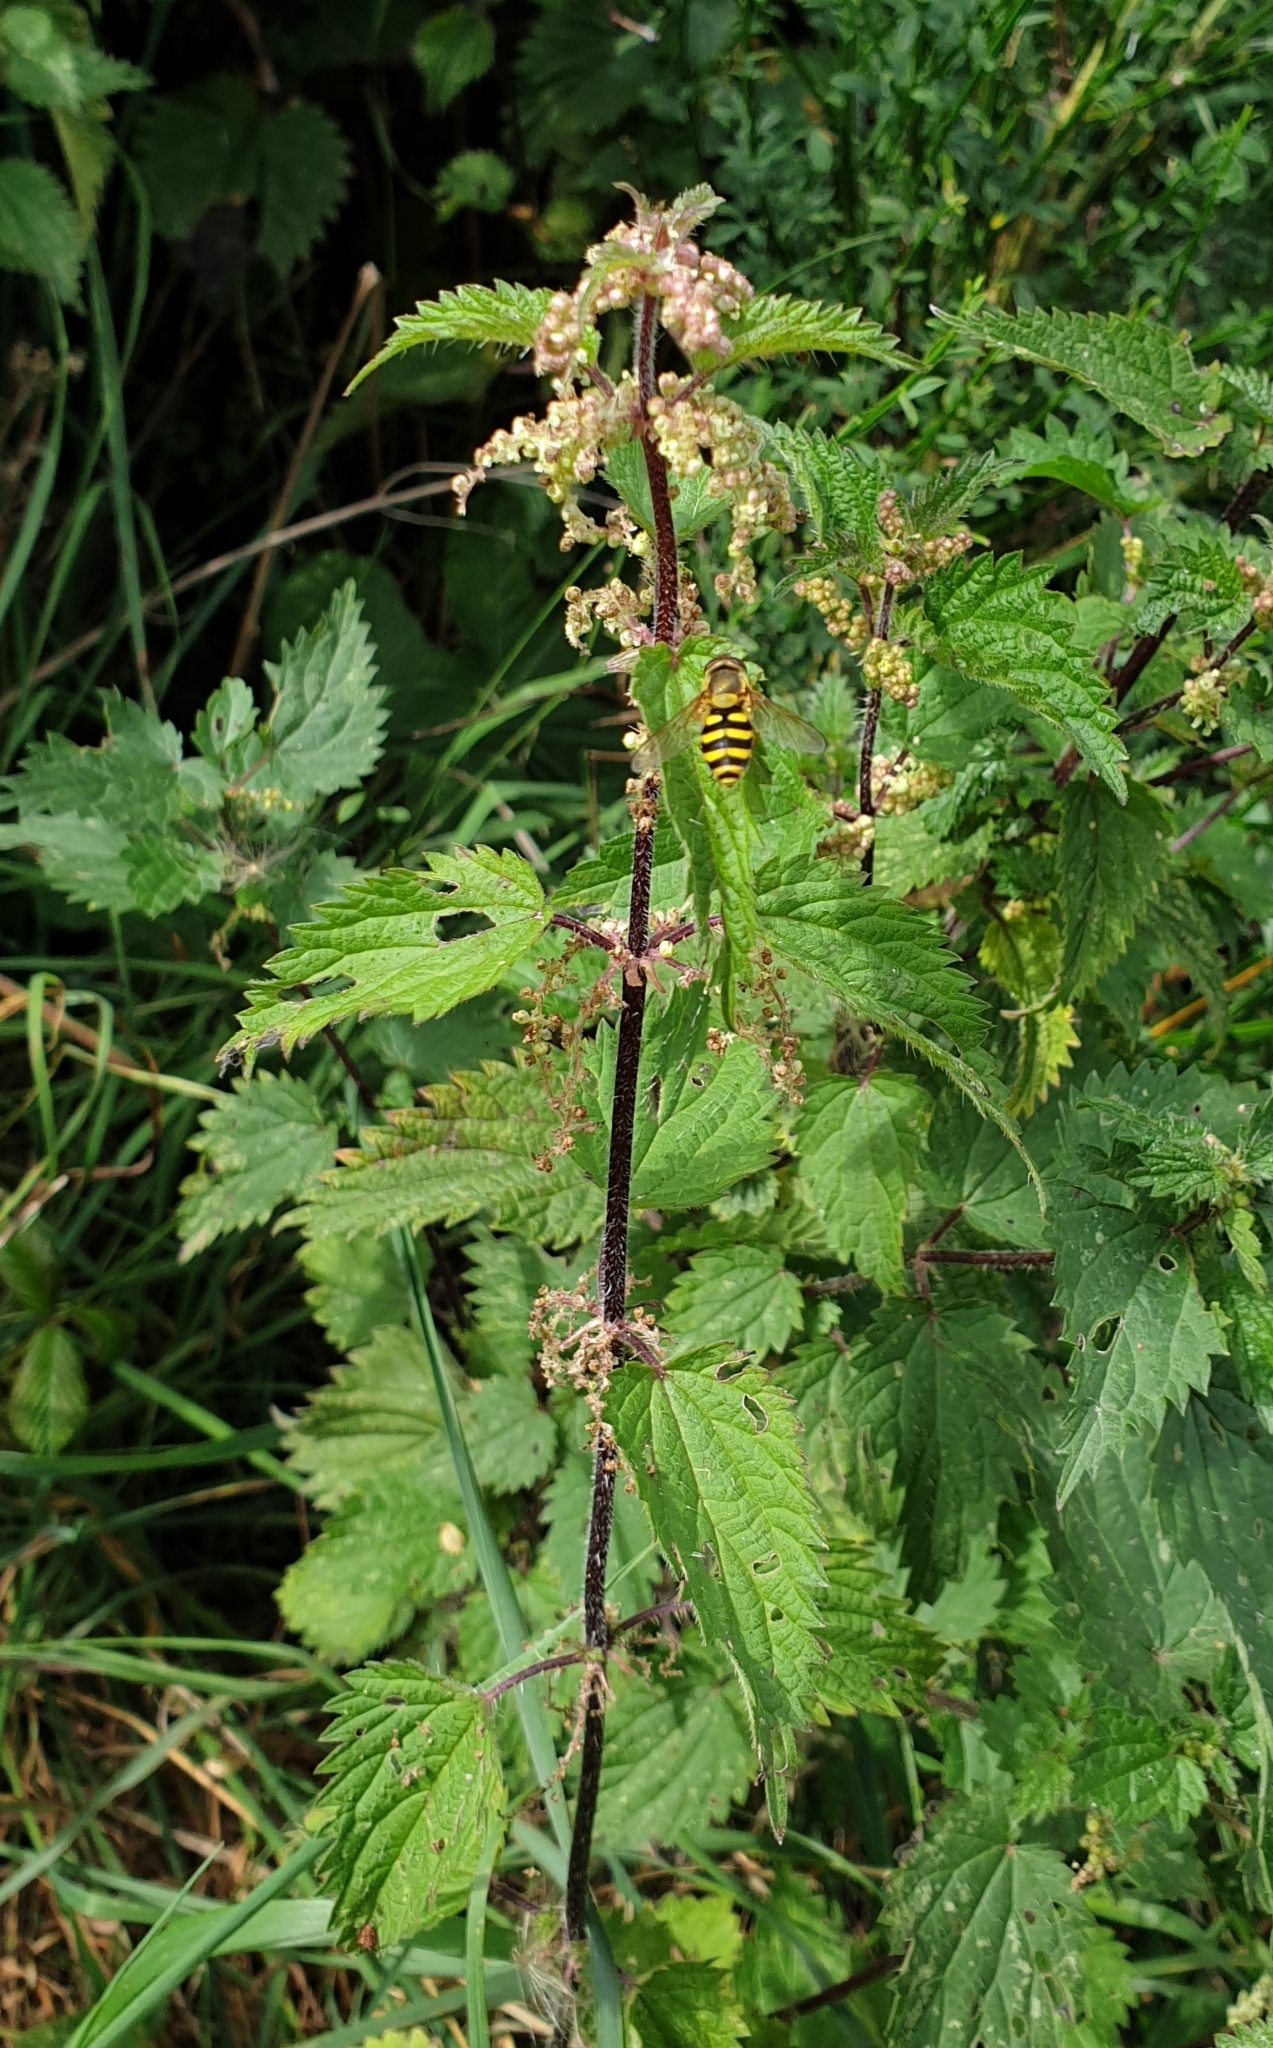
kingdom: Plantae
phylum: Tracheophyta
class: Magnoliopsida
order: Rosales
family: Urticaceae
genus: Urtica
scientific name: Urtica dioica
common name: Common nettle
